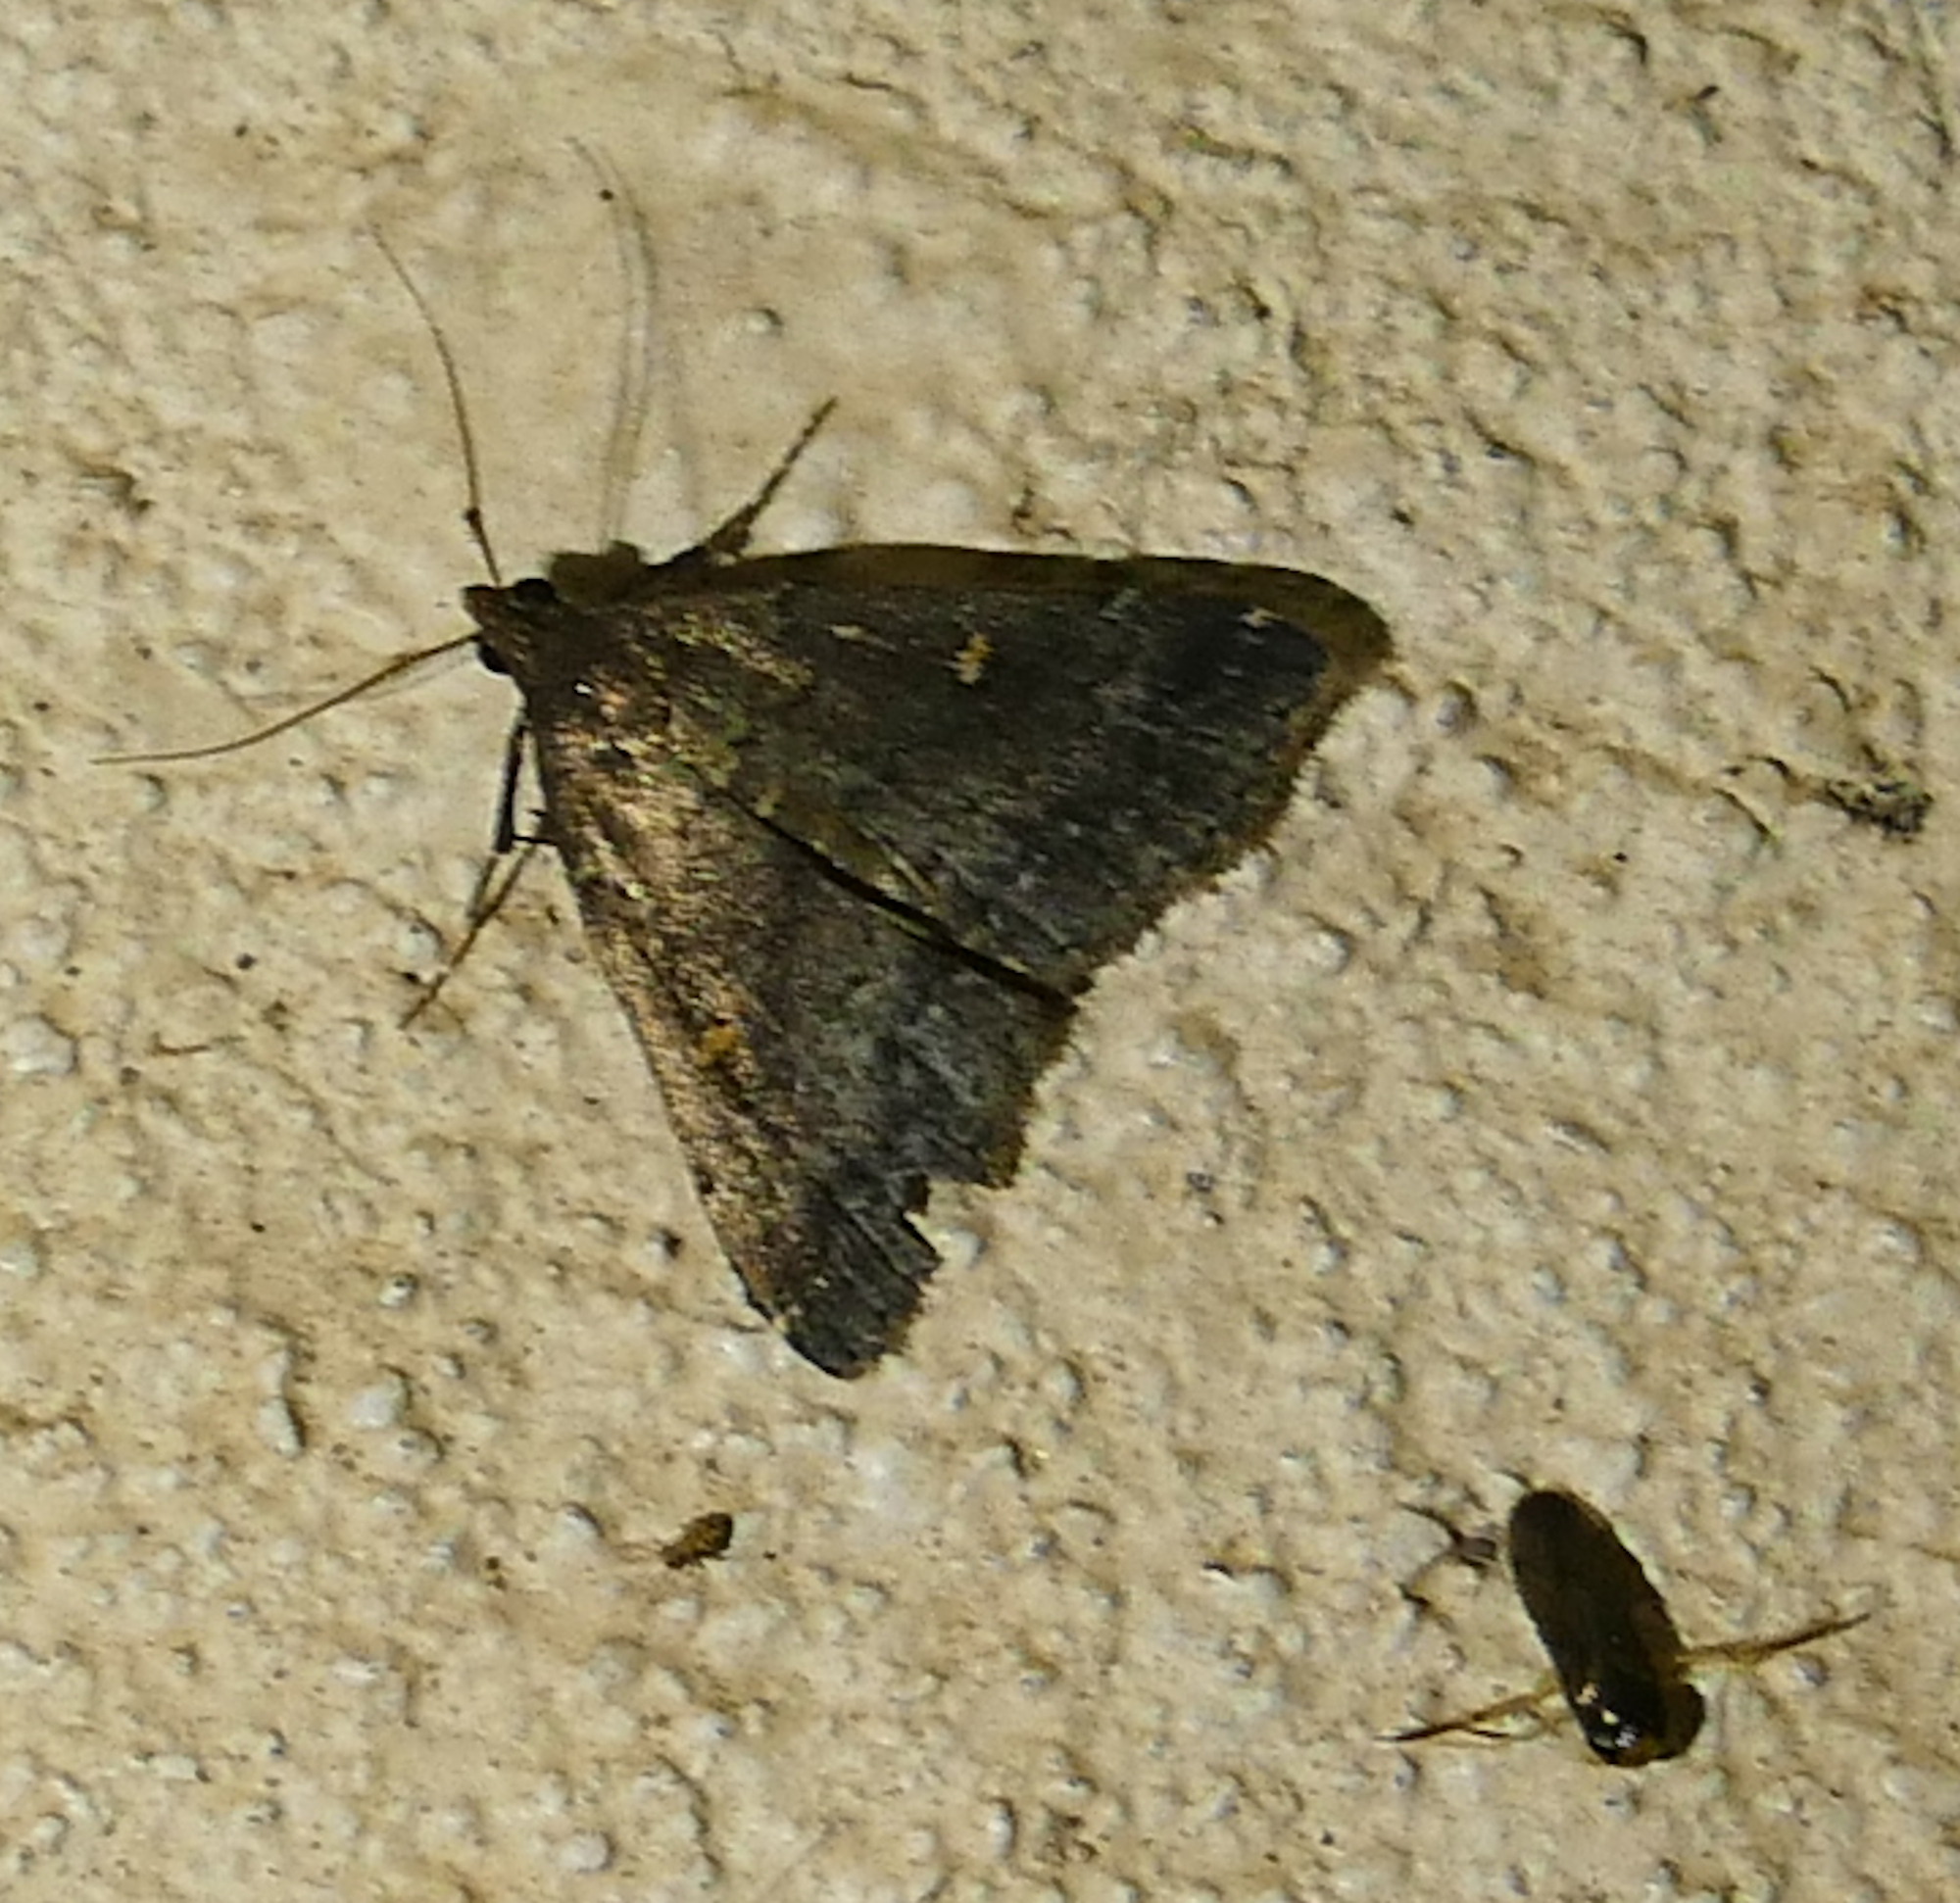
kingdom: Animalia
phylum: Arthropoda
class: Insecta
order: Lepidoptera
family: Erebidae
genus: Tetanolita
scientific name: Tetanolita mynesalis
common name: Smoky tetanolita moth
